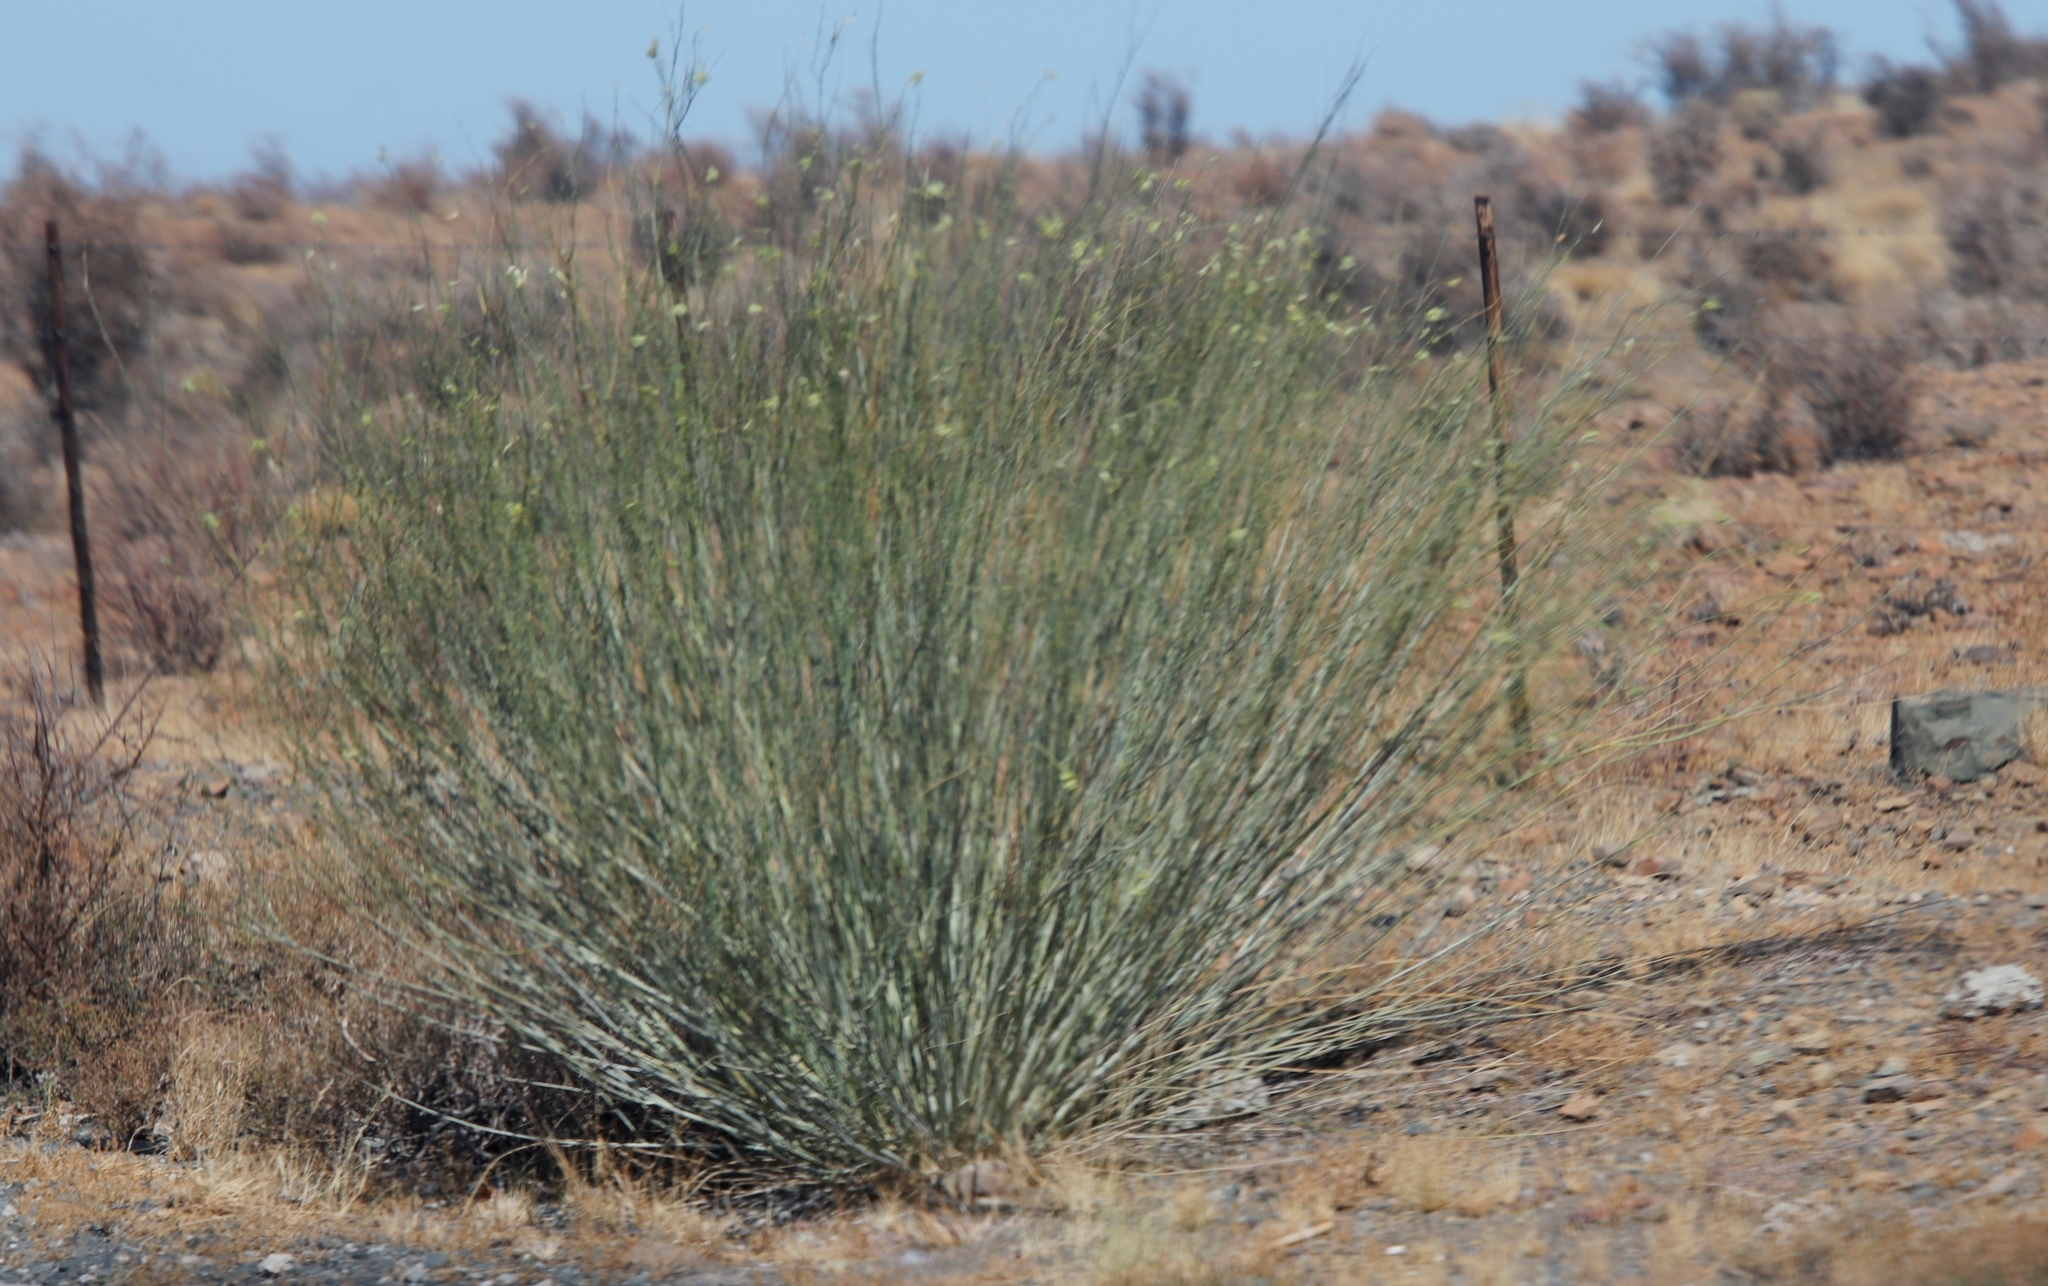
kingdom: Plantae
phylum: Tracheophyta
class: Magnoliopsida
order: Gentianales
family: Apocynaceae
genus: Gomphocarpus
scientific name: Gomphocarpus filiformis
